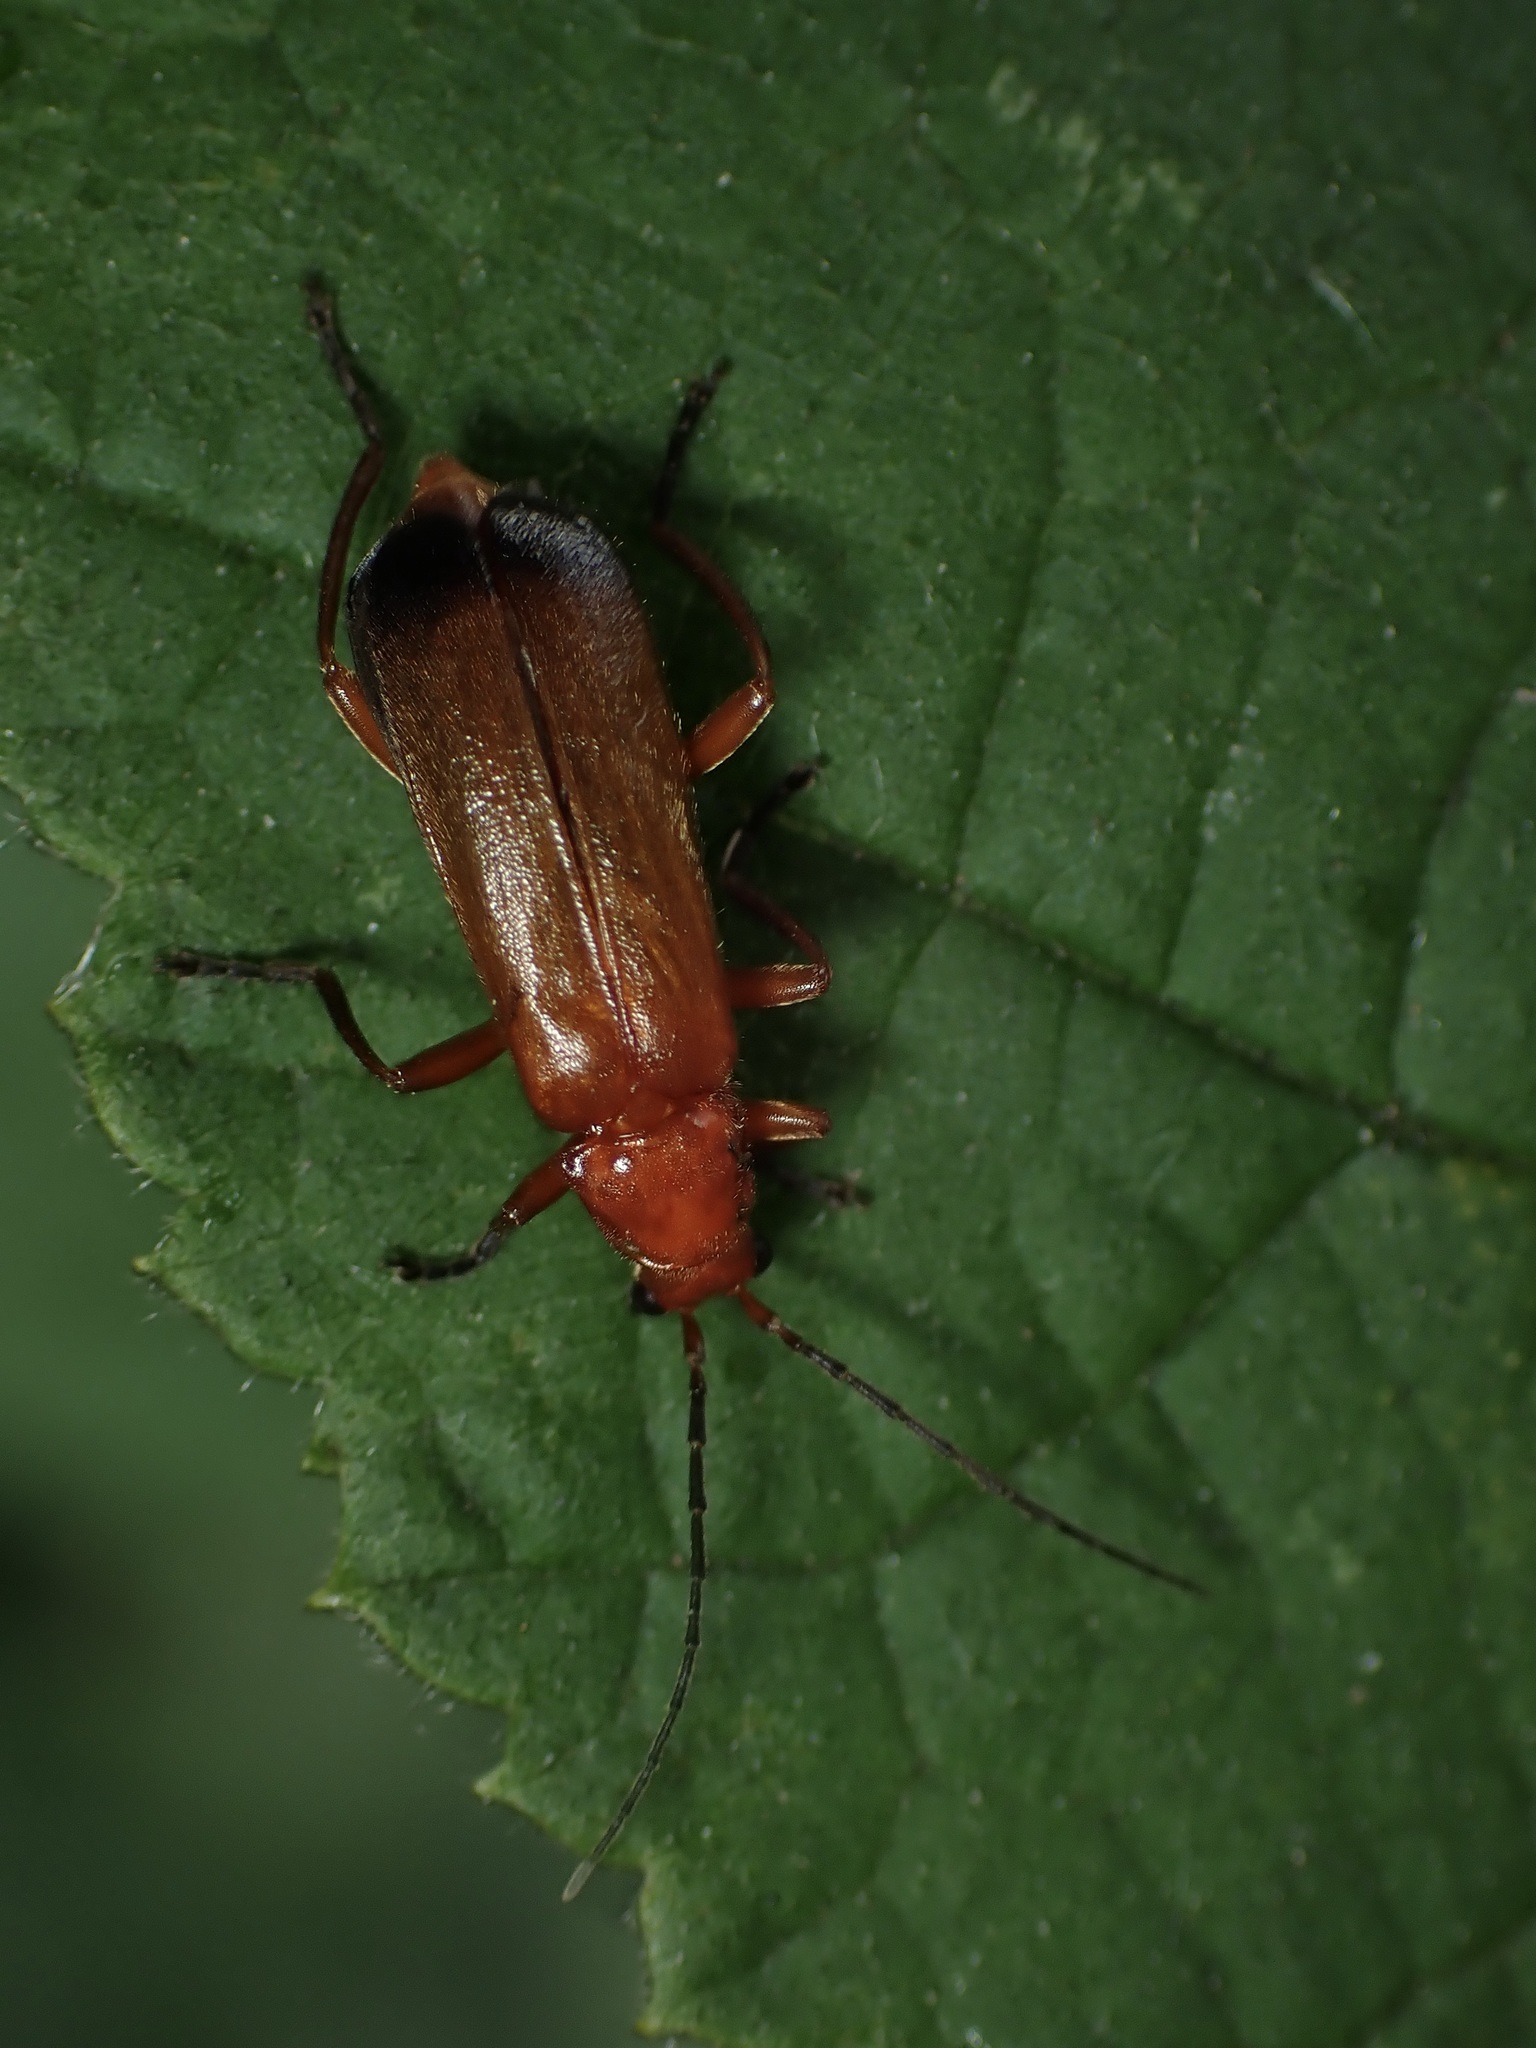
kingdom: Animalia
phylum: Arthropoda
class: Insecta
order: Coleoptera
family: Cantharidae
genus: Rhagonycha
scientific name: Rhagonycha fulva
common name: Common red soldier beetle
